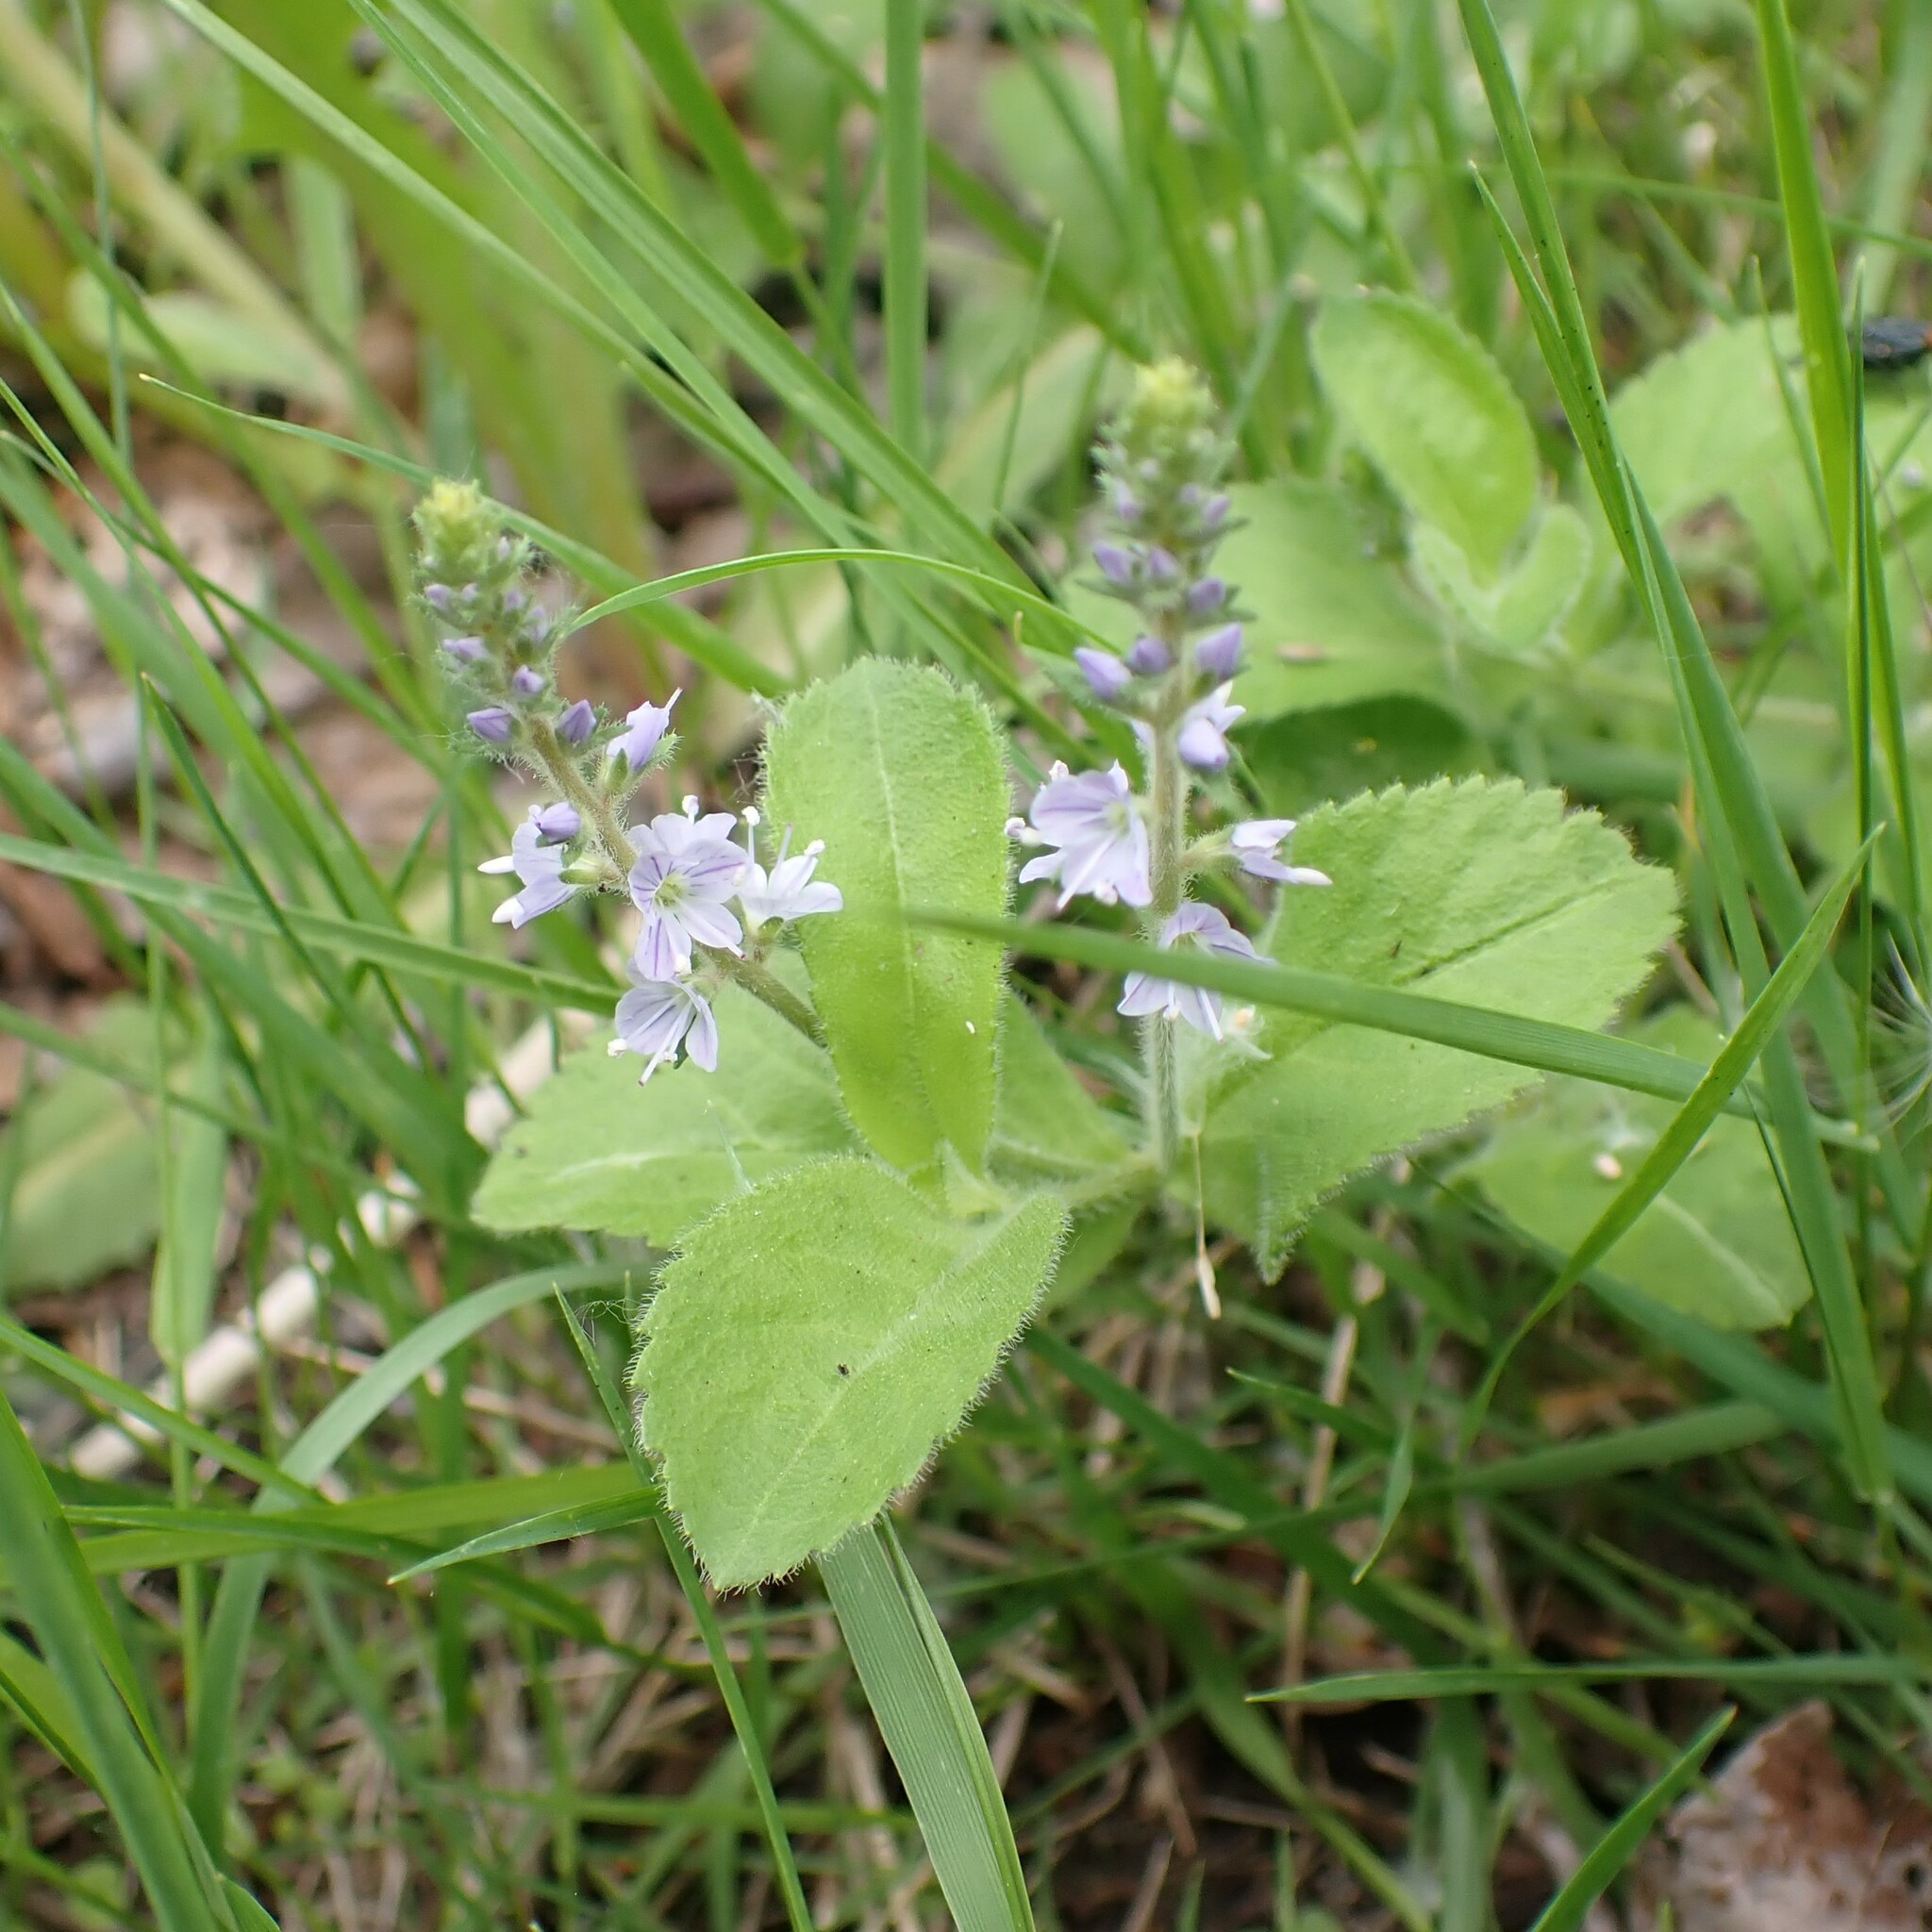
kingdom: Plantae
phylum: Tracheophyta
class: Magnoliopsida
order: Lamiales
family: Plantaginaceae
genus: Veronica
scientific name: Veronica officinalis
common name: Common speedwell
